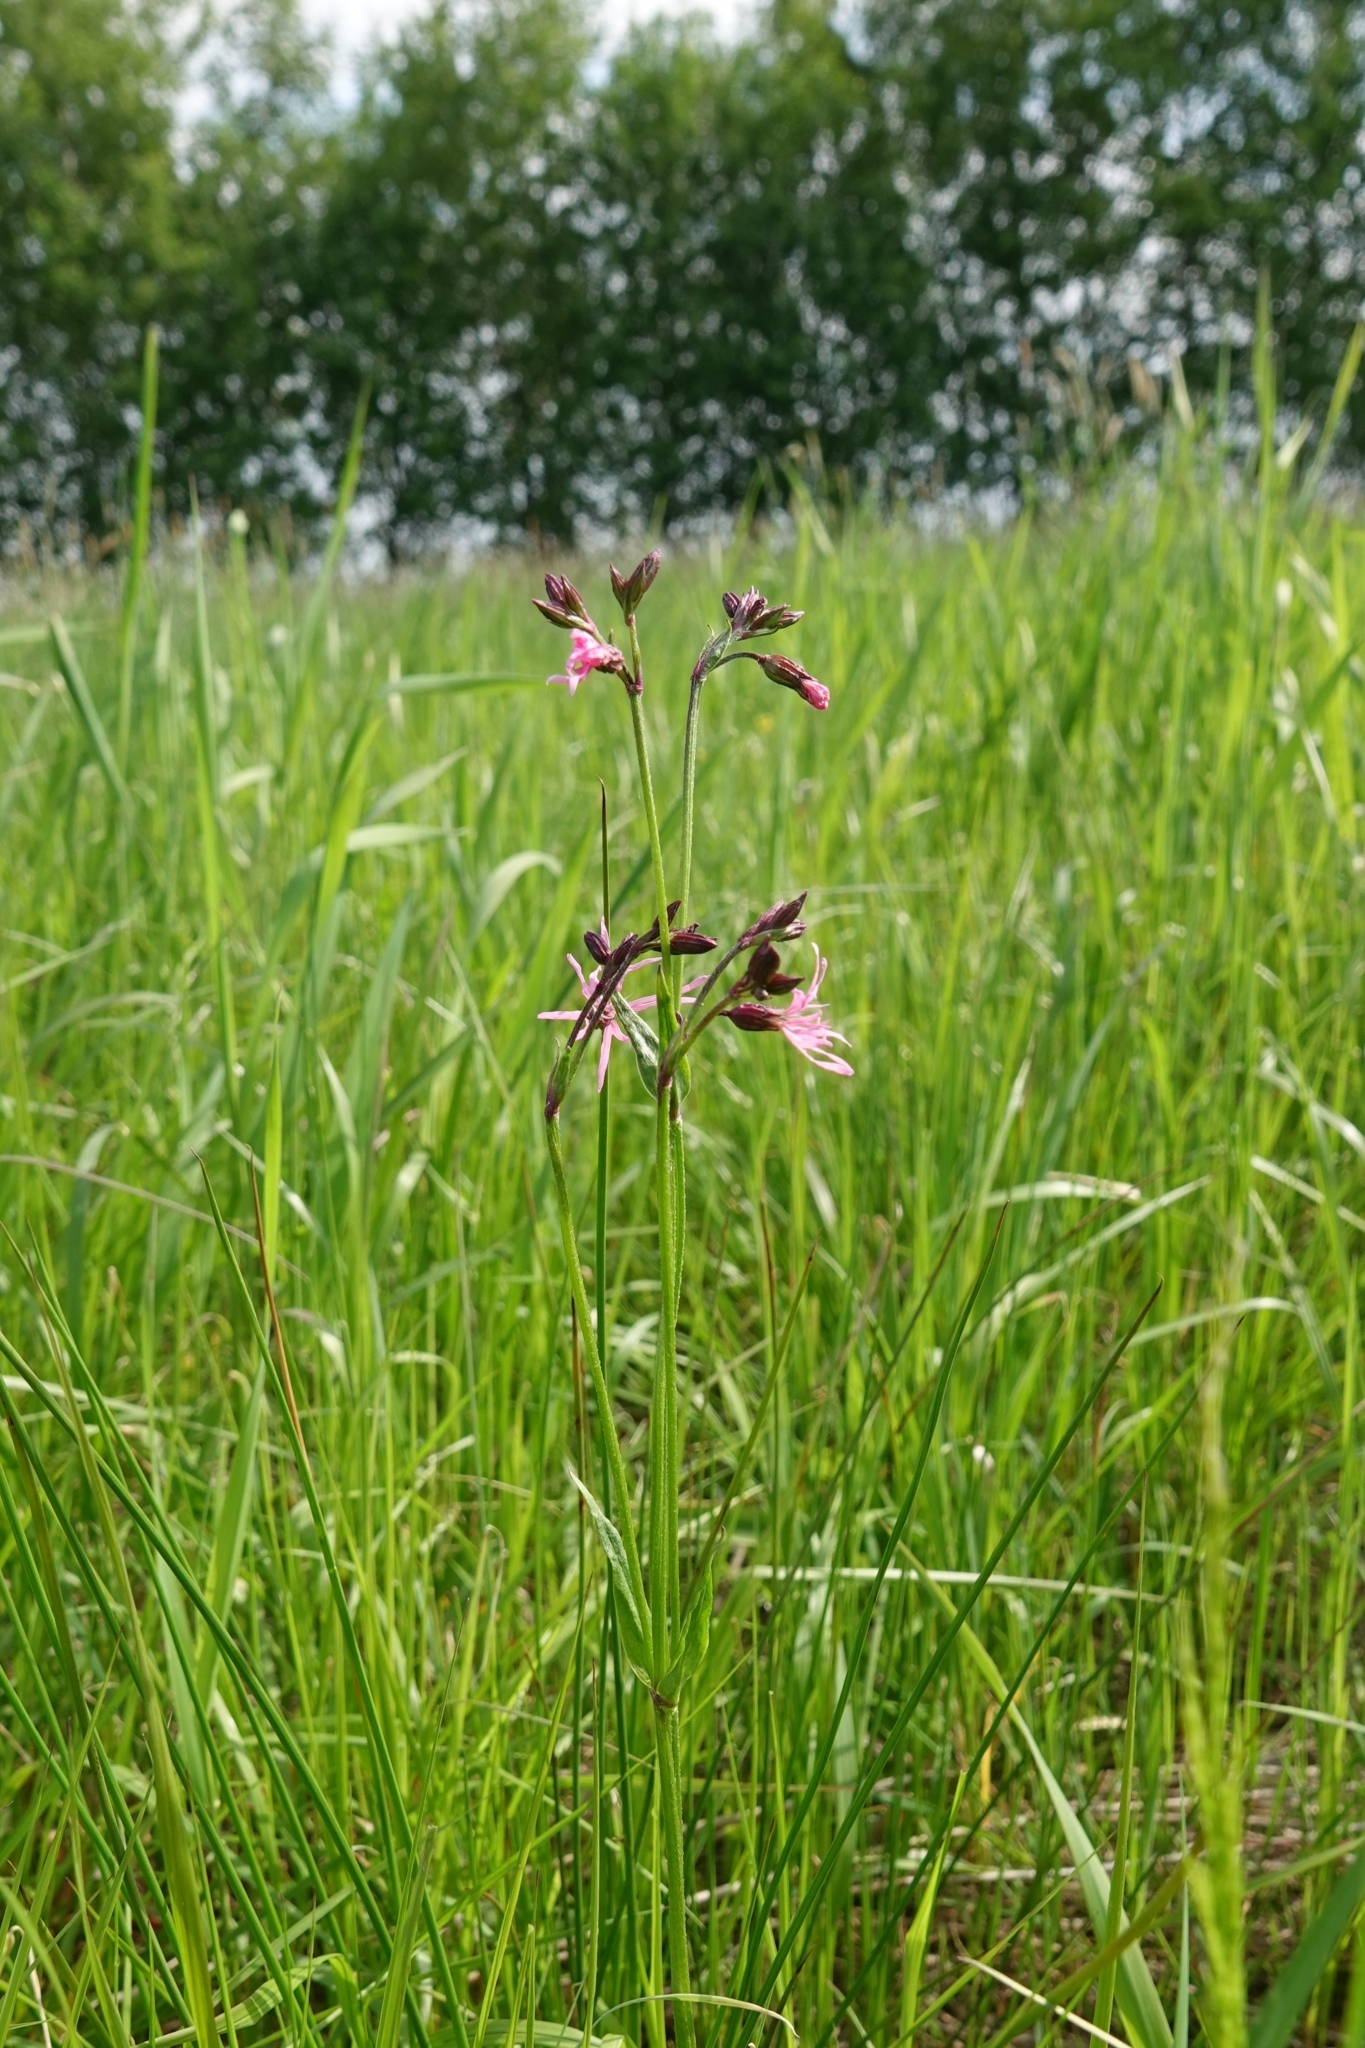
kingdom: Plantae
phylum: Tracheophyta
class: Magnoliopsida
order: Caryophyllales
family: Caryophyllaceae
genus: Silene
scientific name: Silene flos-cuculi
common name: Ragged-robin
